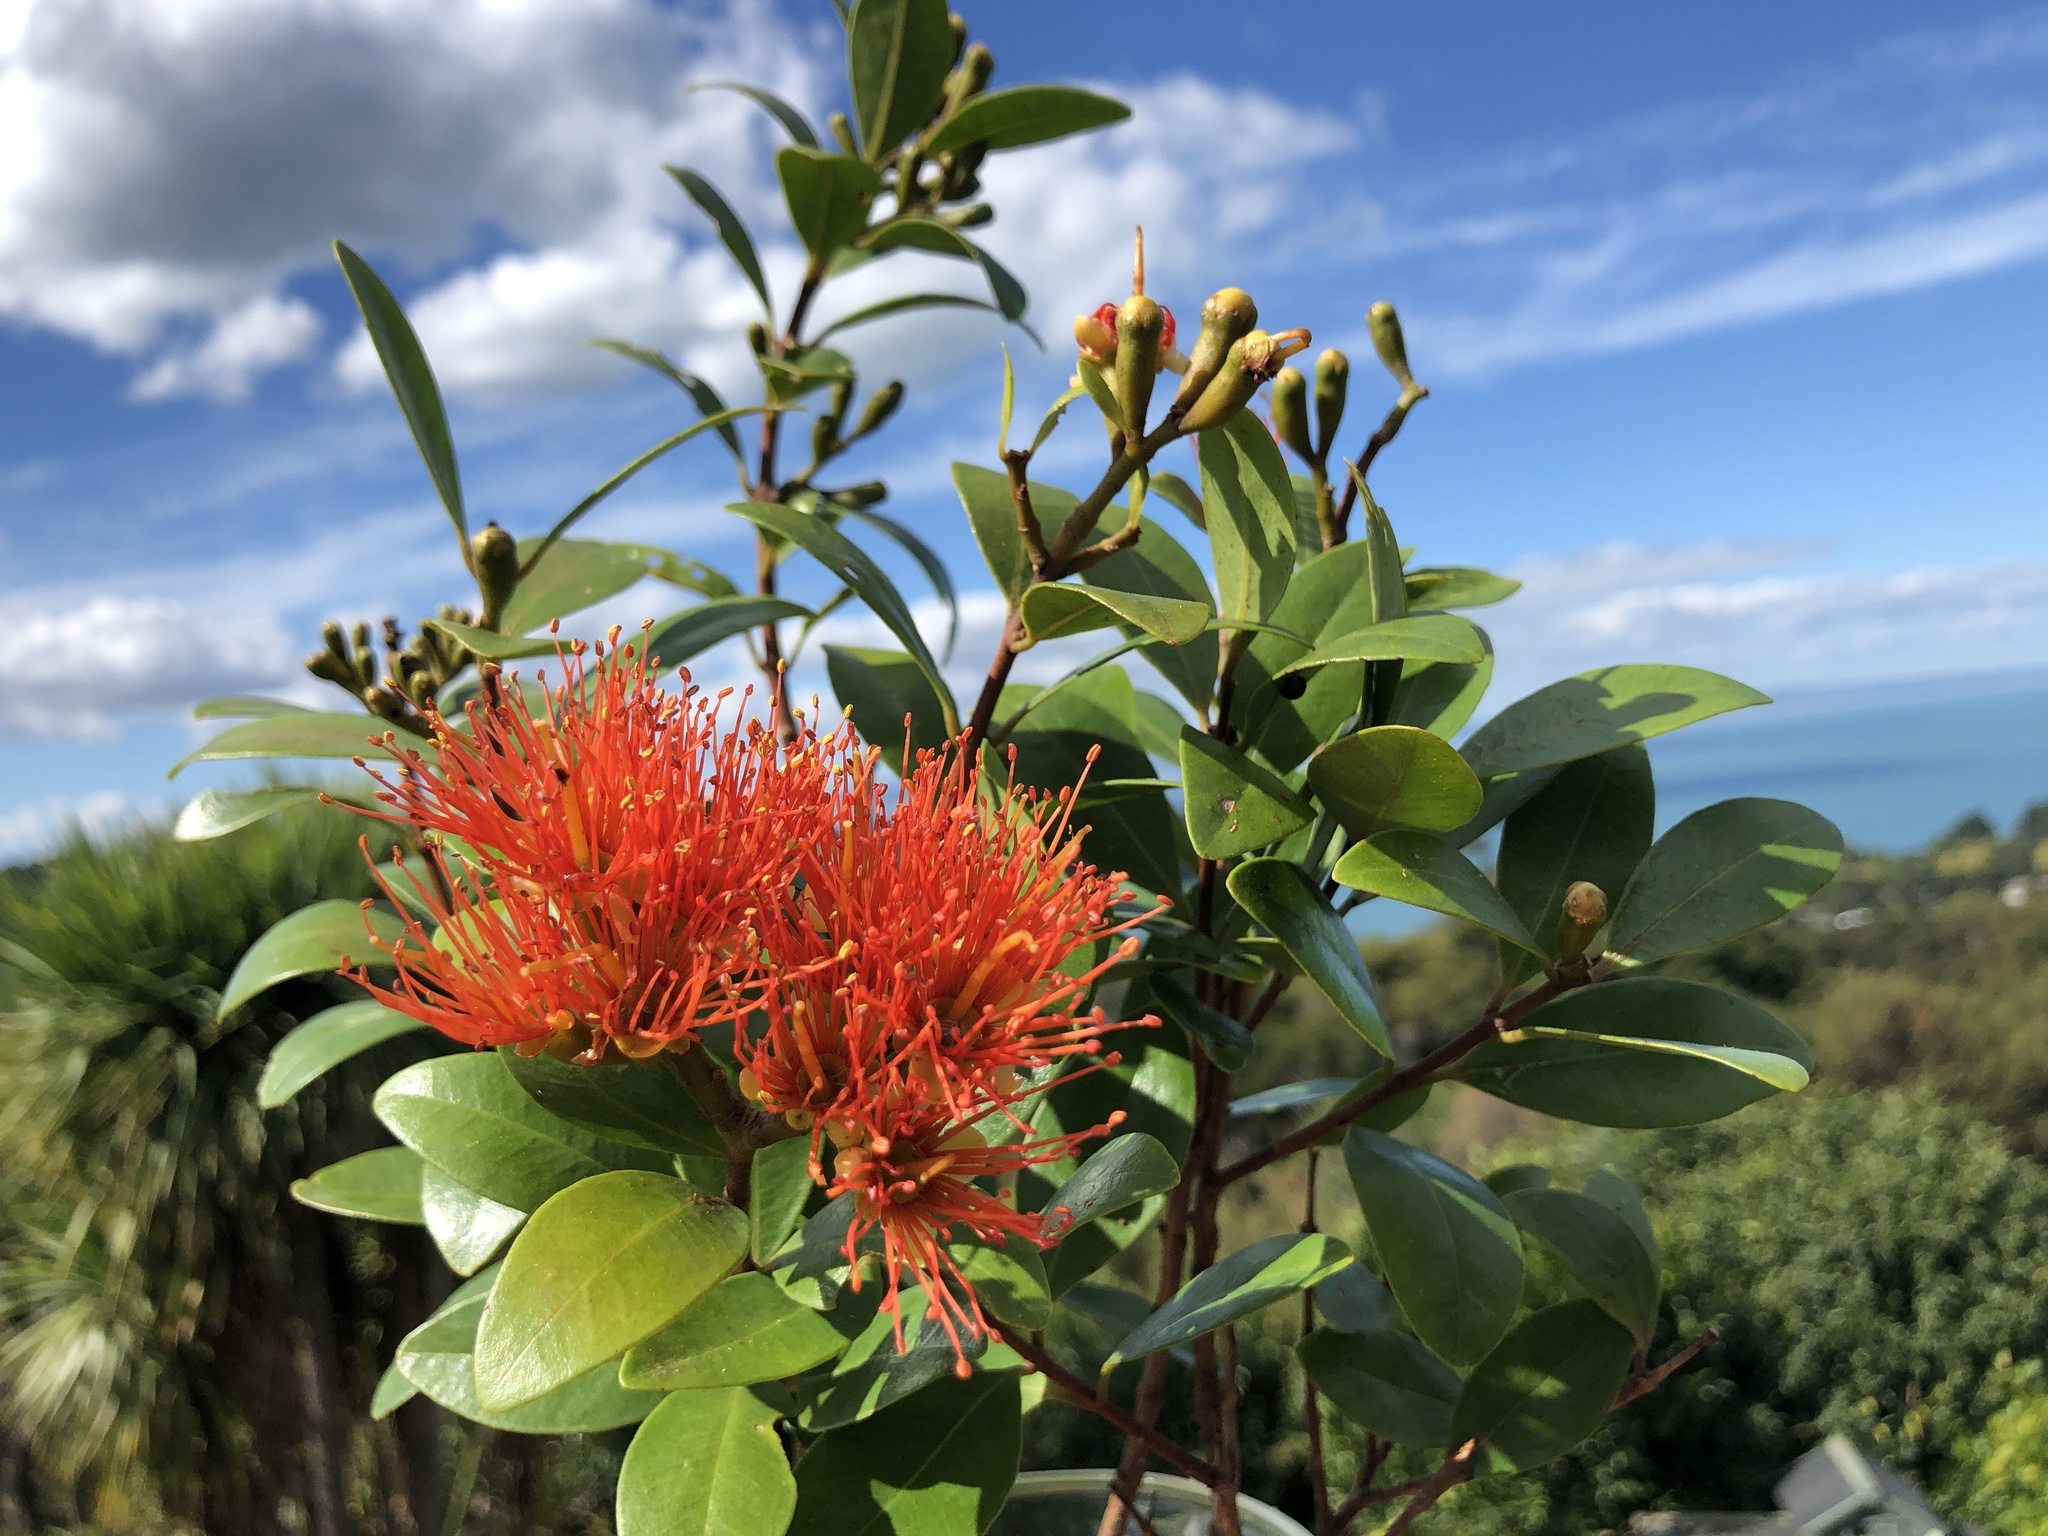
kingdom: Plantae
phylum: Tracheophyta
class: Magnoliopsida
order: Myrtales
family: Myrtaceae
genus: Metrosideros
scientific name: Metrosideros fulgens
